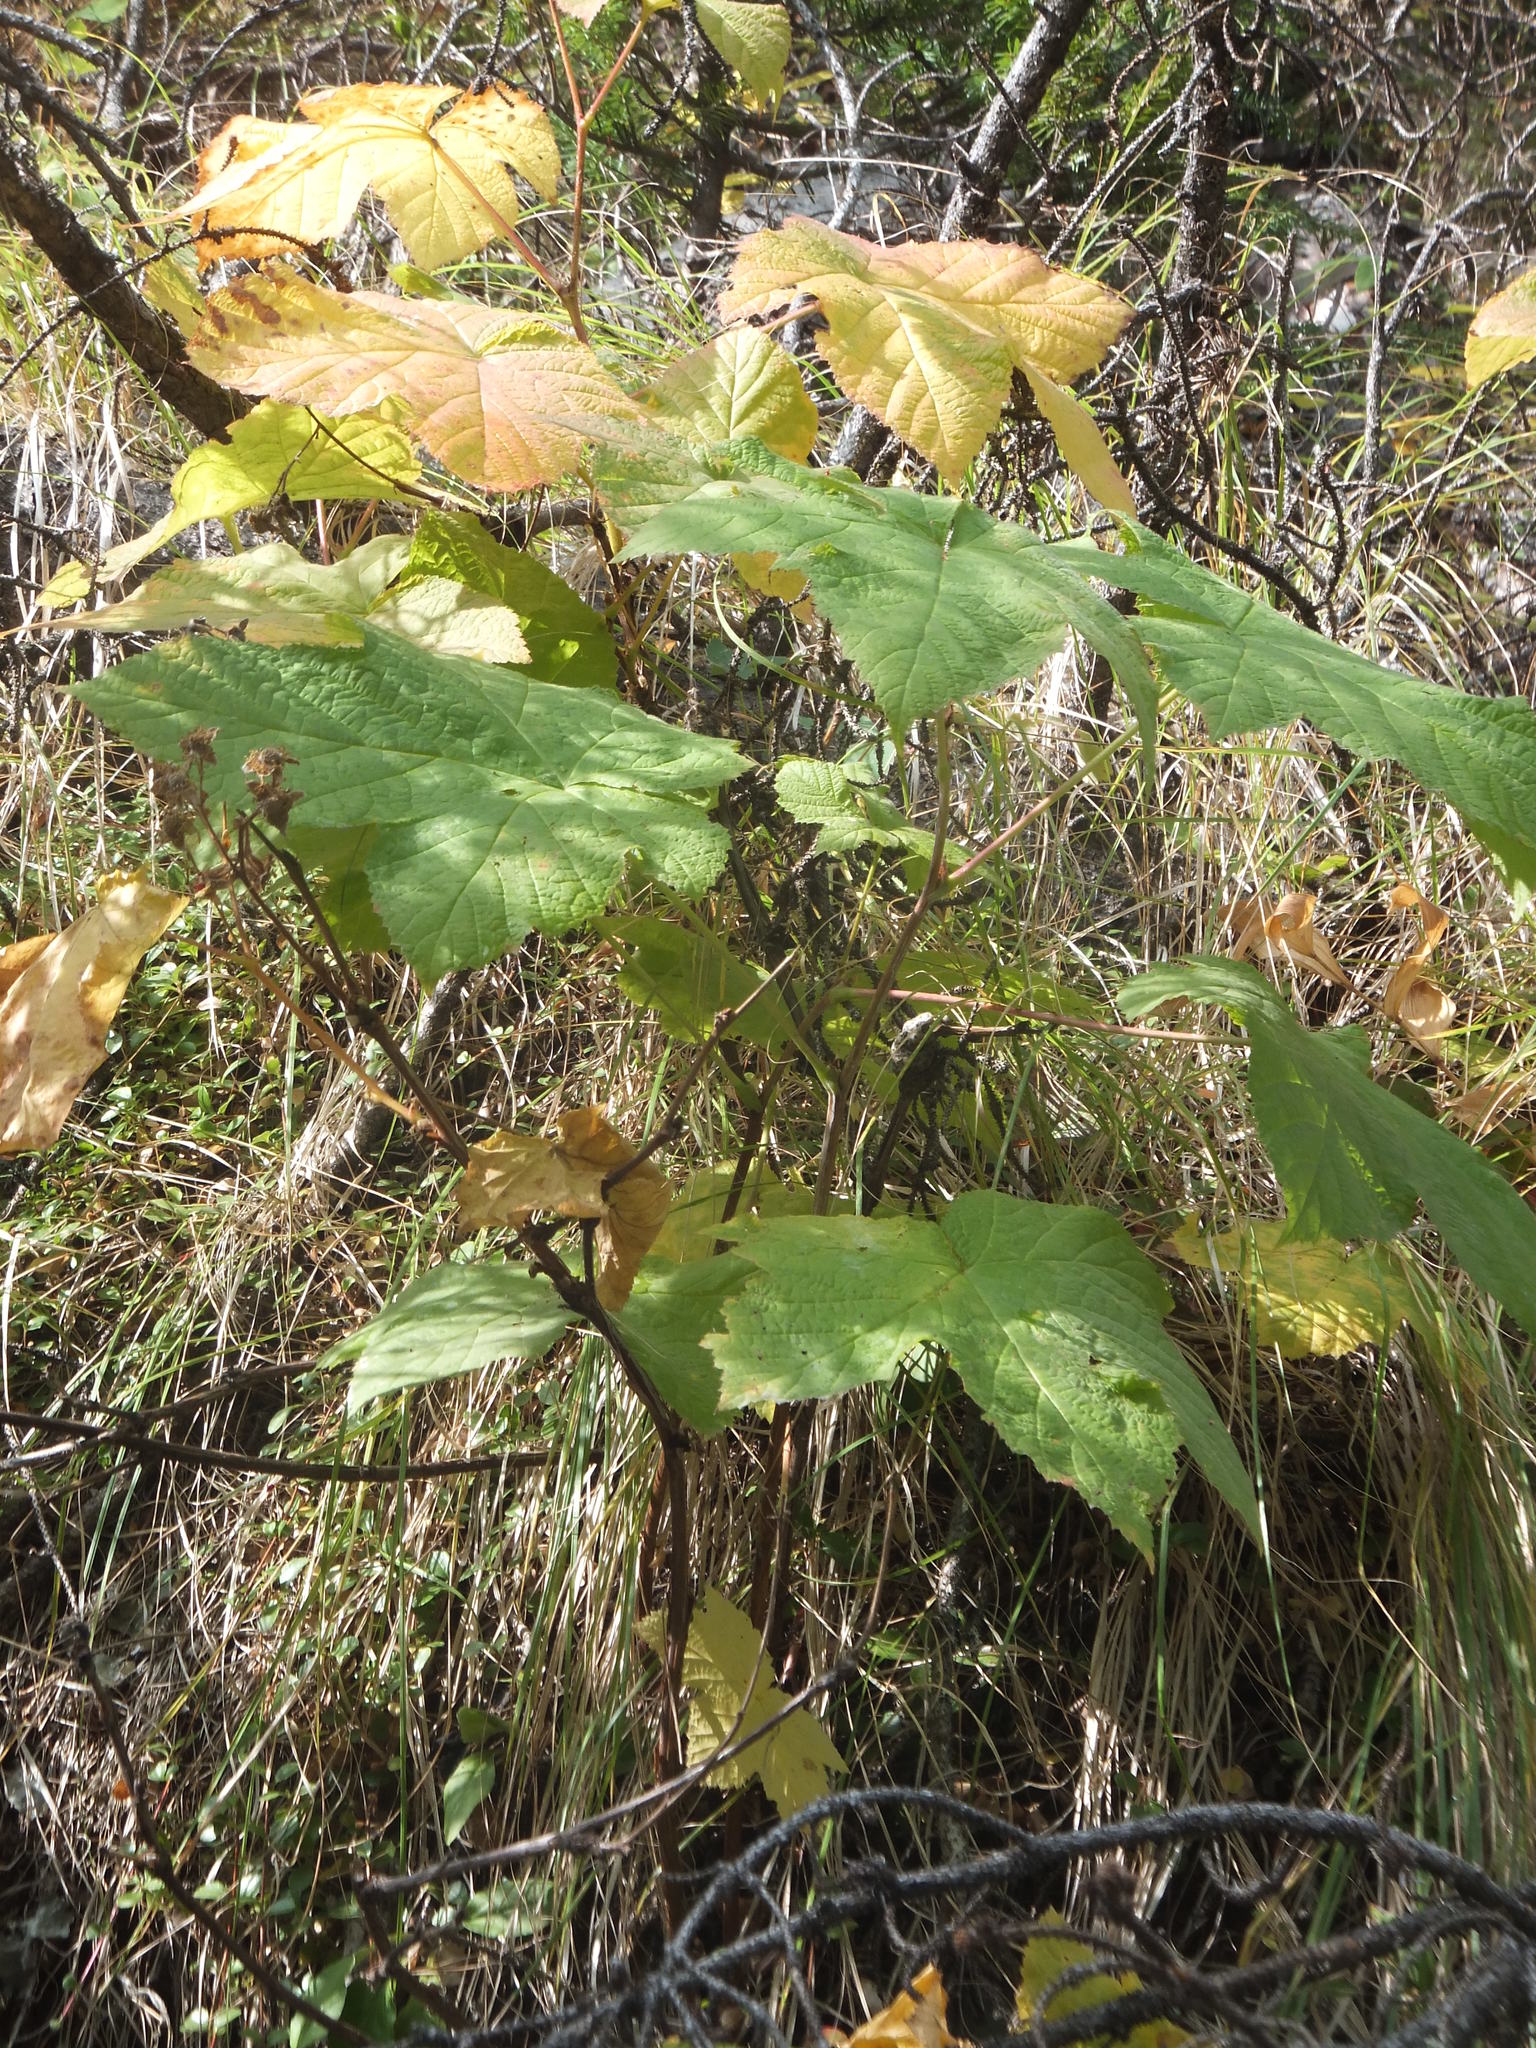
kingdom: Plantae
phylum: Tracheophyta
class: Magnoliopsida
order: Rosales
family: Rosaceae
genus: Rubus
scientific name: Rubus parviflorus
